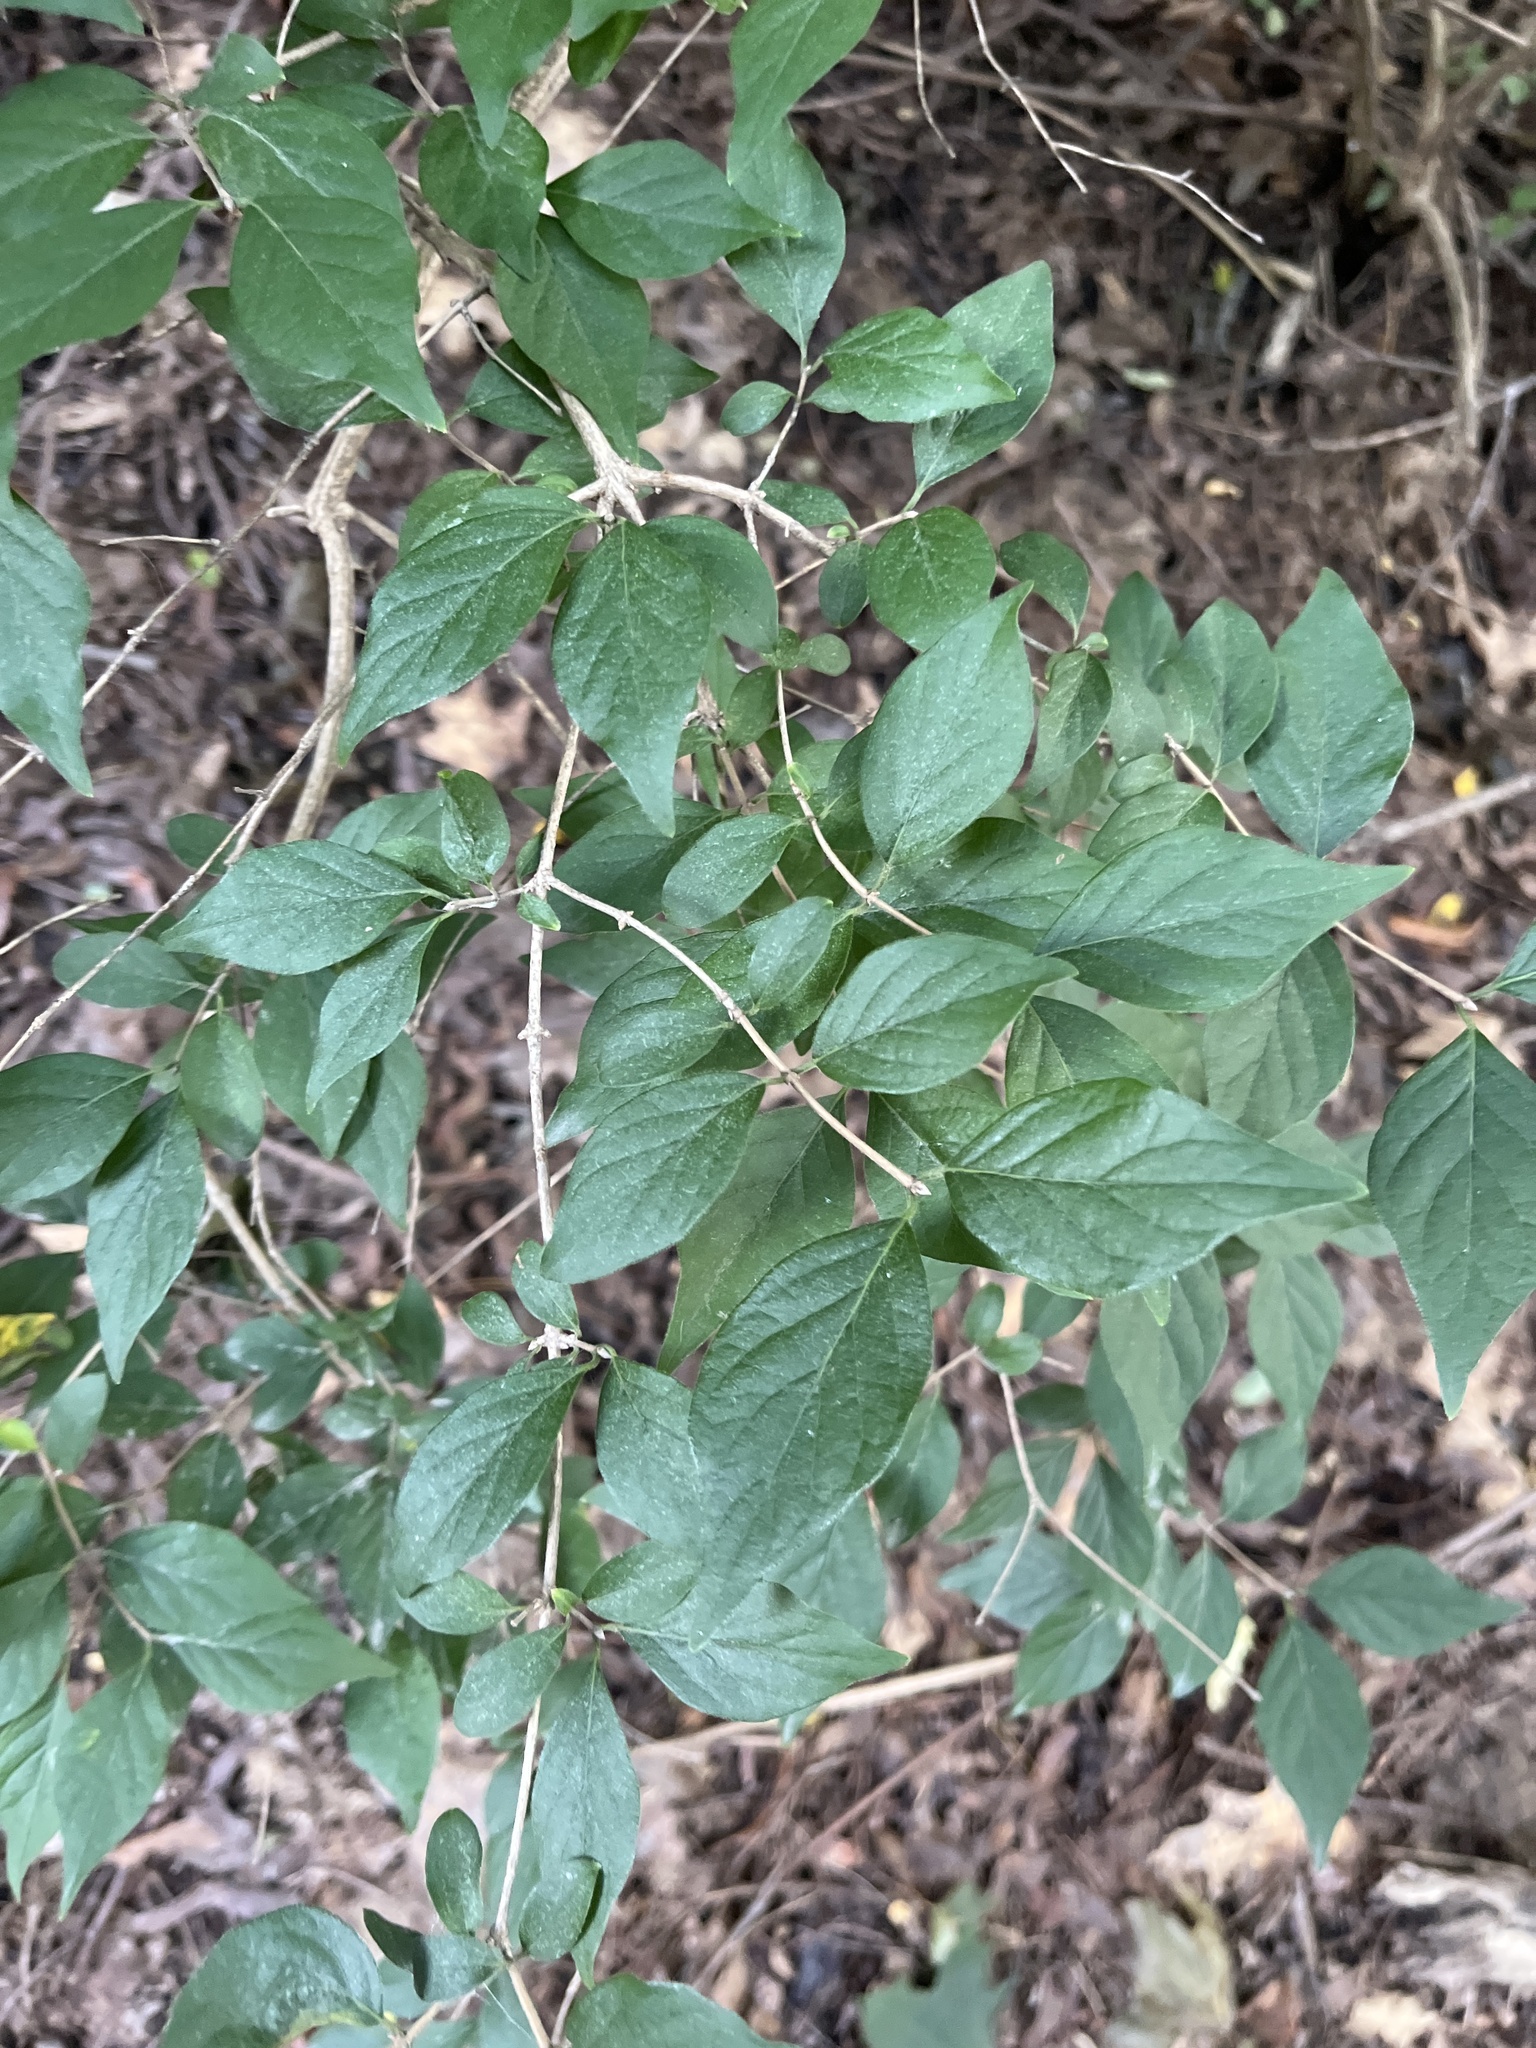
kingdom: Plantae
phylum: Tracheophyta
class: Magnoliopsida
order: Dipsacales
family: Caprifoliaceae
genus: Lonicera
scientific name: Lonicera maackii
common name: Amur honeysuckle
